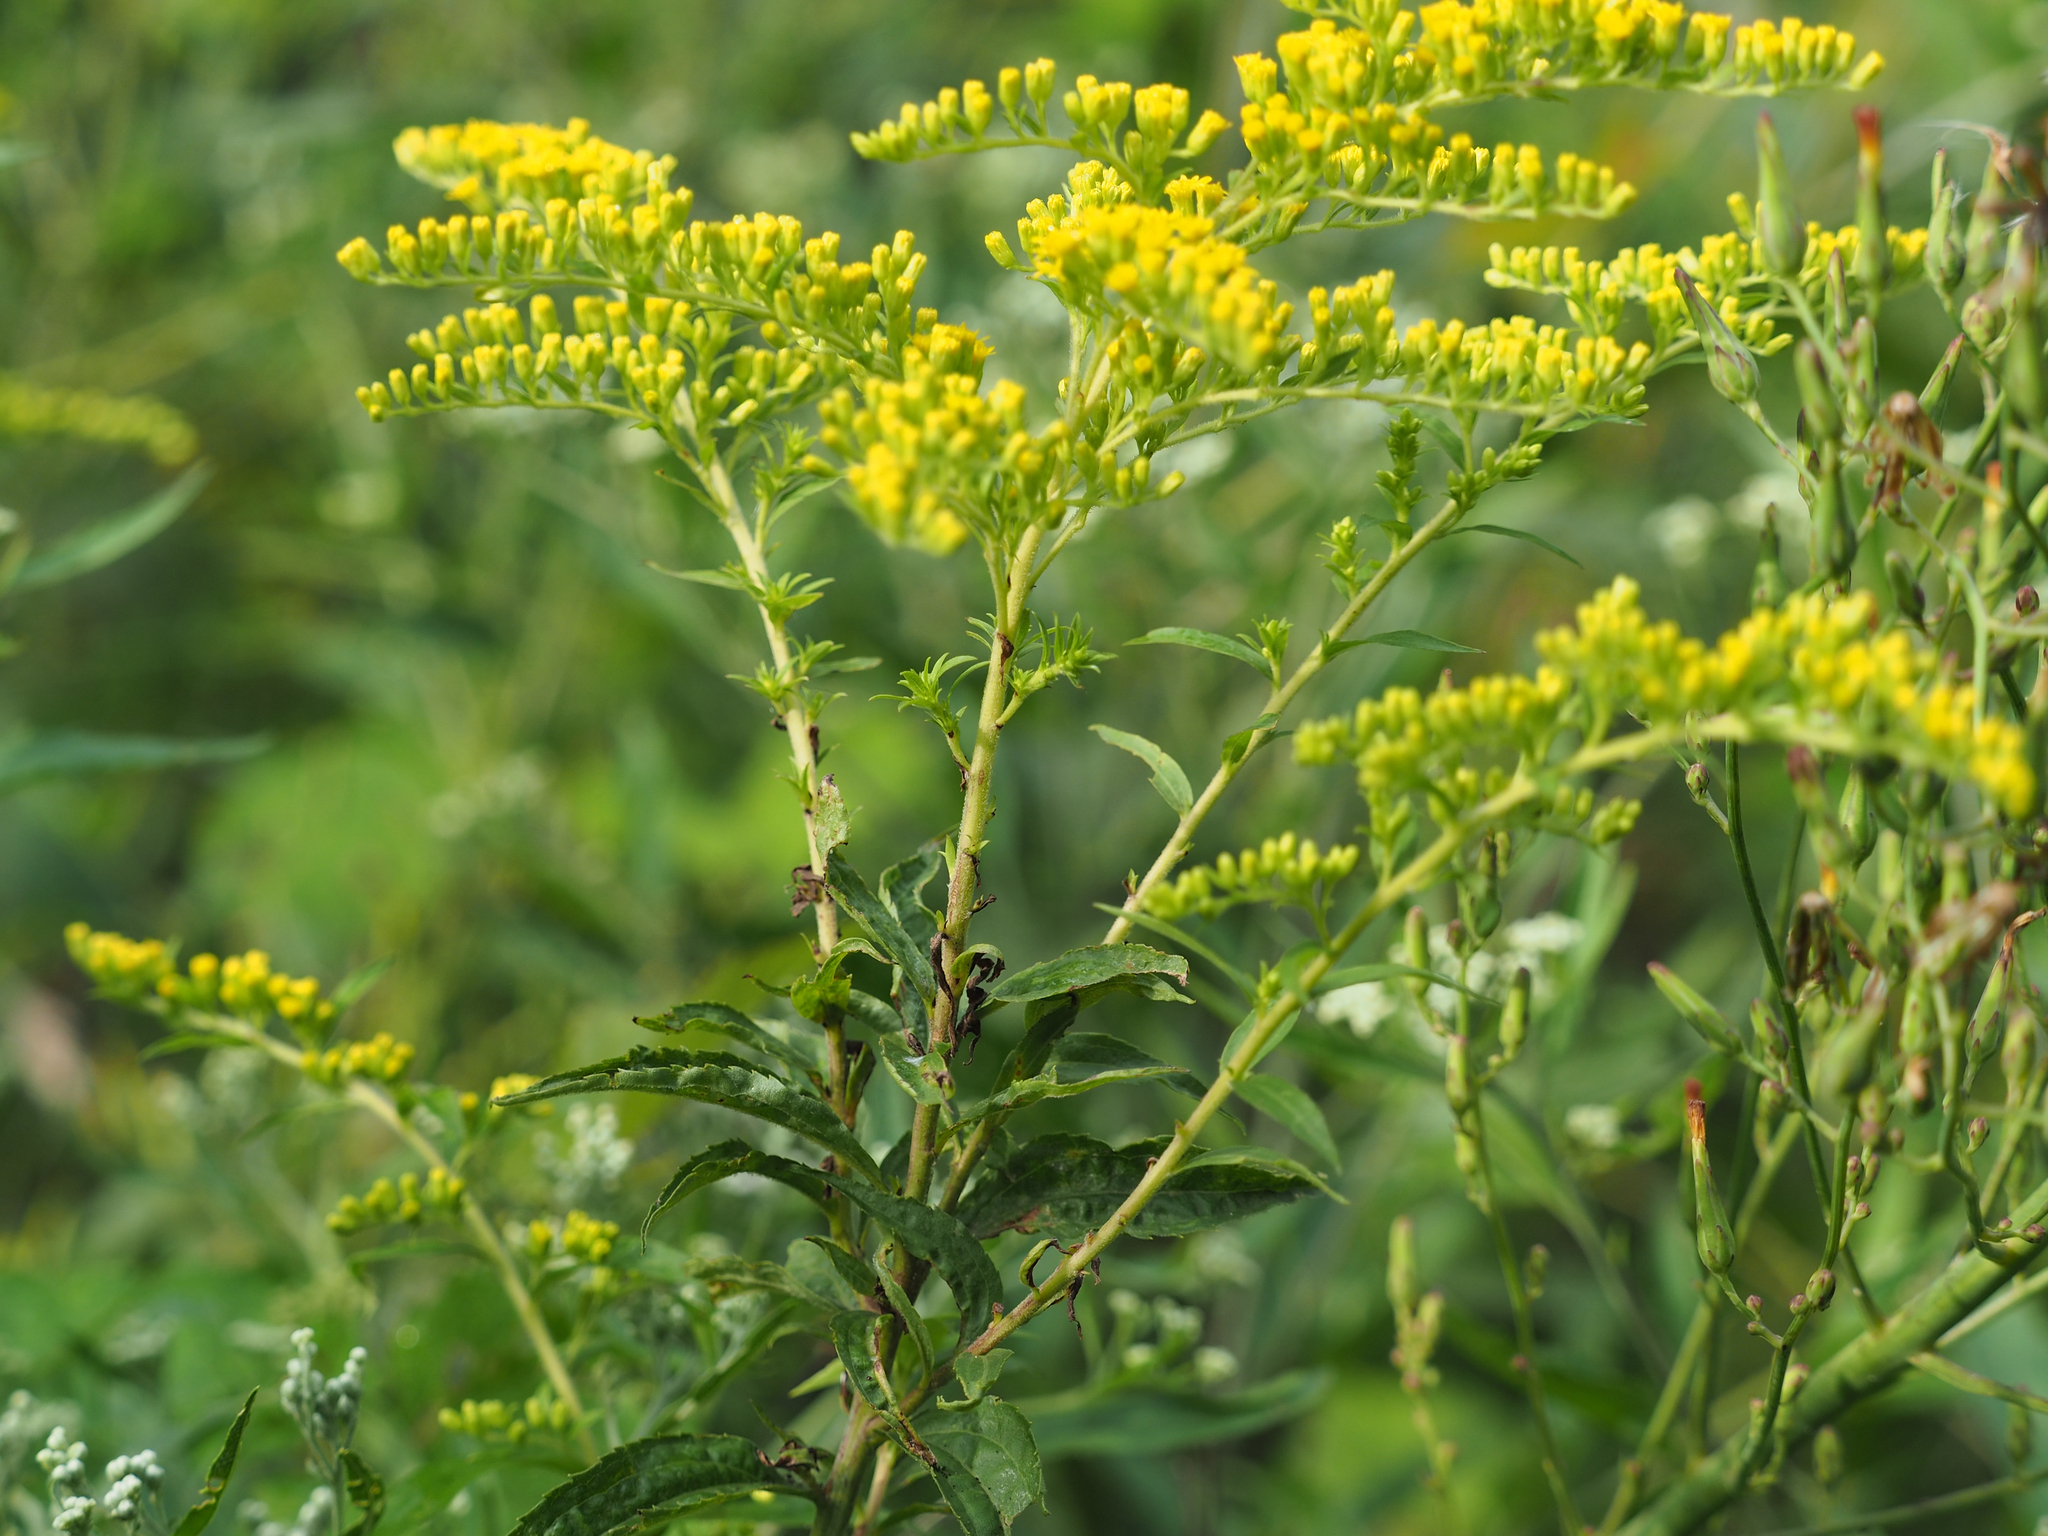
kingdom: Plantae
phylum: Tracheophyta
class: Magnoliopsida
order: Asterales
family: Asteraceae
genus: Solidago
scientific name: Solidago gigantea
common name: Giant goldenrod
